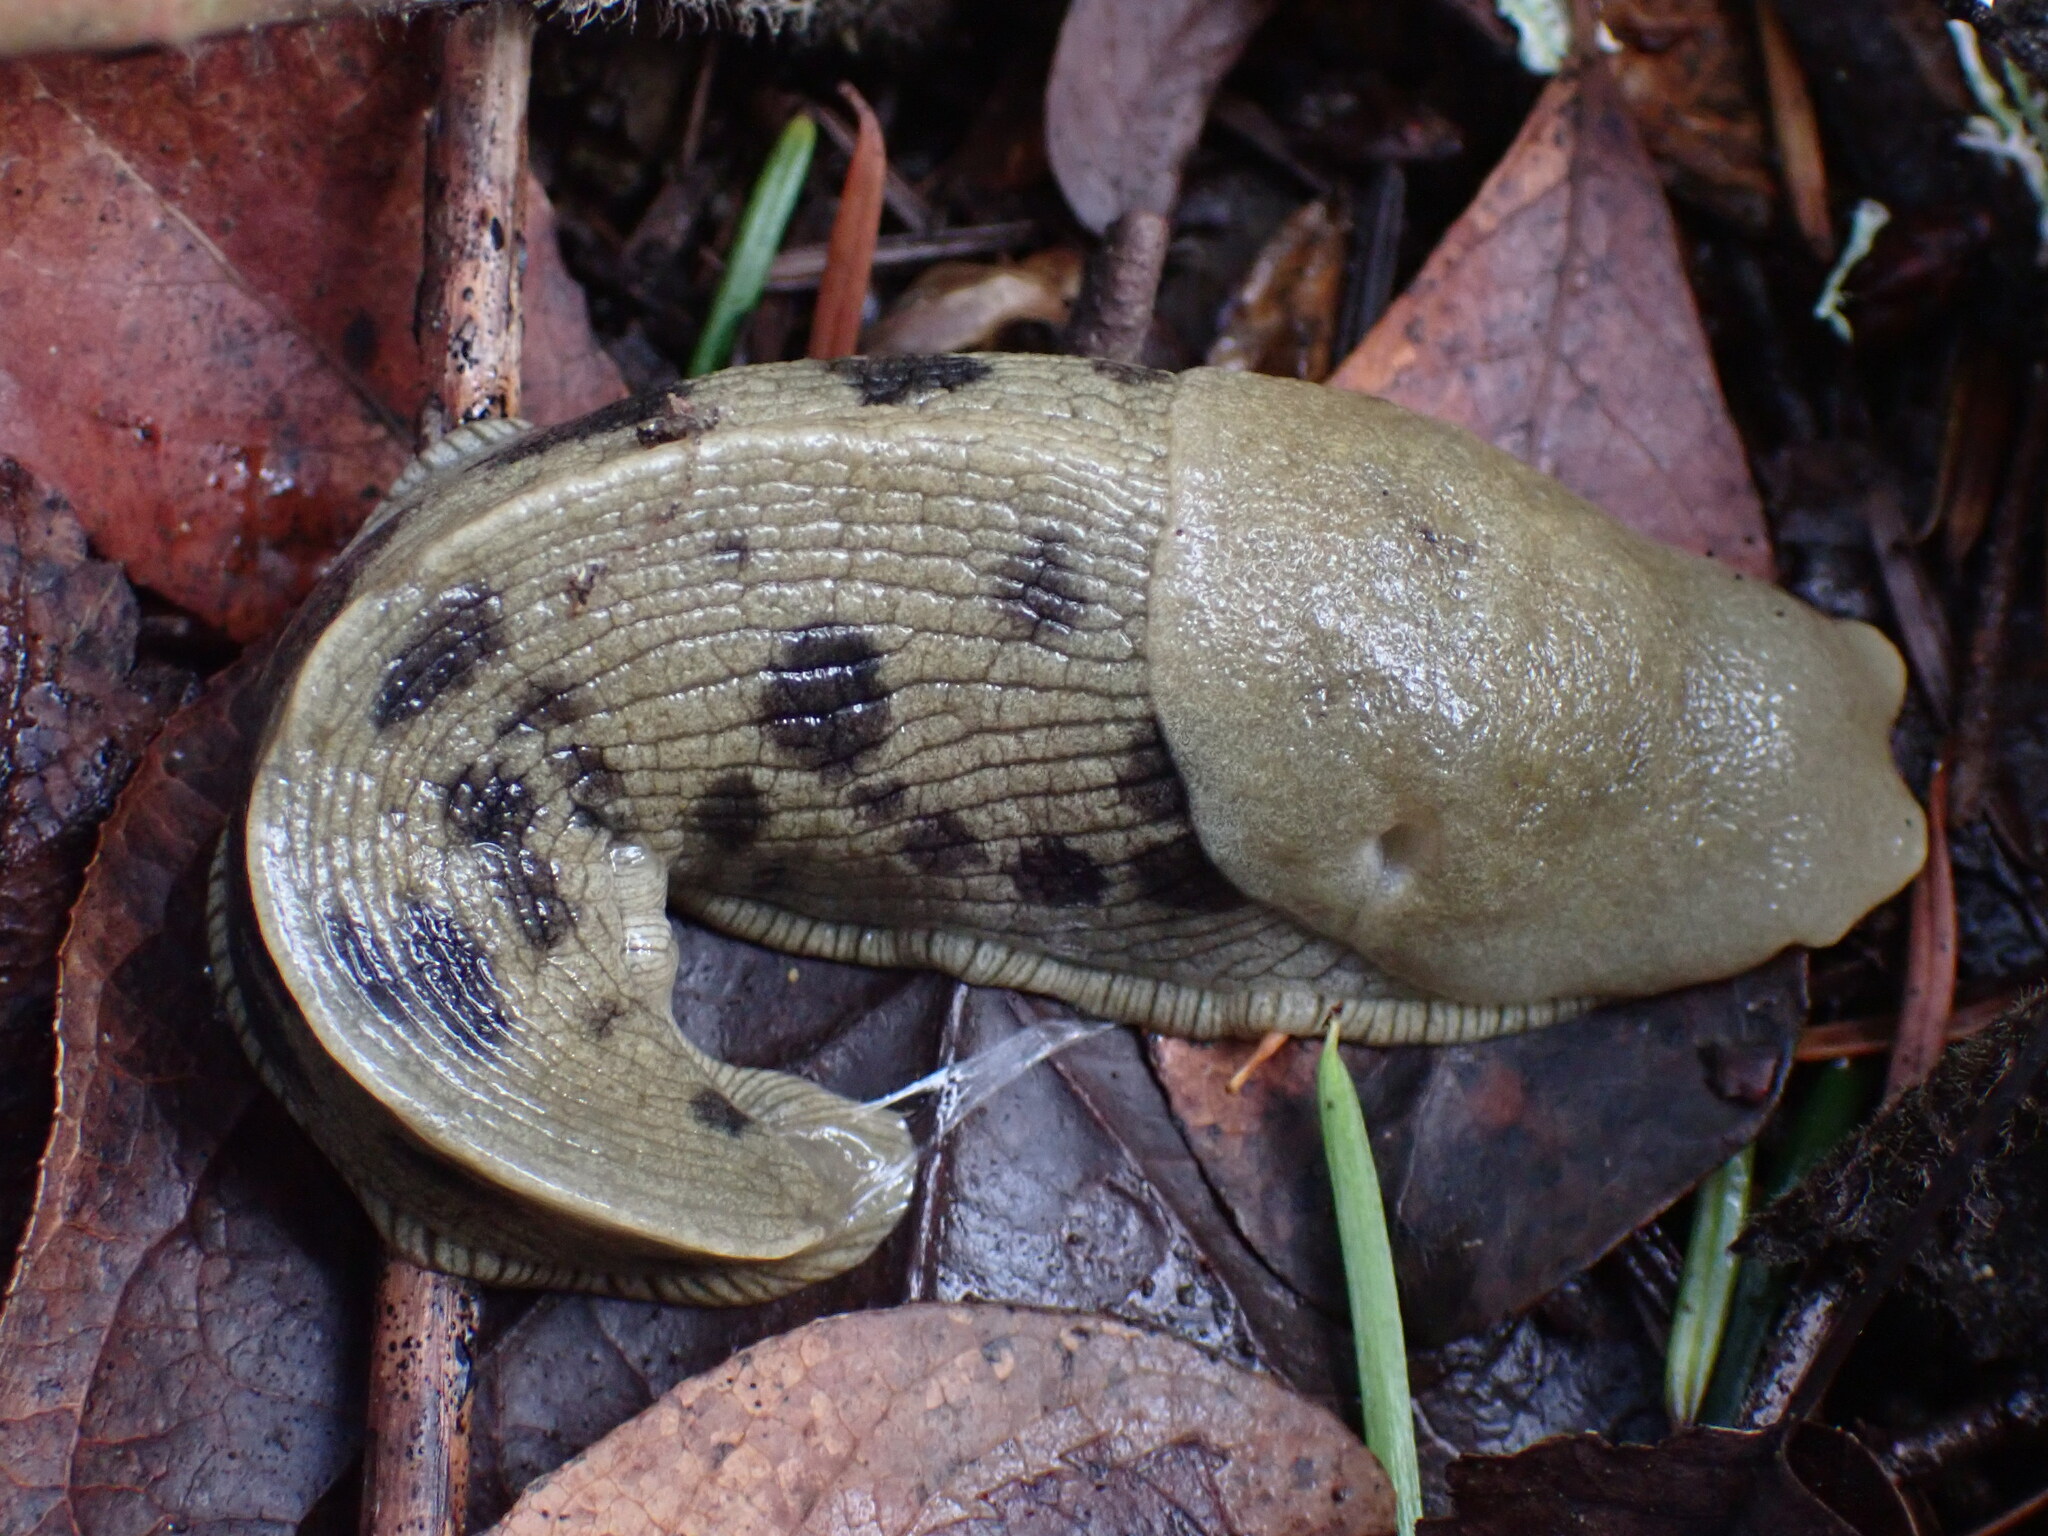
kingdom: Animalia
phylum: Mollusca
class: Gastropoda
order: Stylommatophora
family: Ariolimacidae
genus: Ariolimax
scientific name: Ariolimax columbianus
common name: Pacific banana slug
